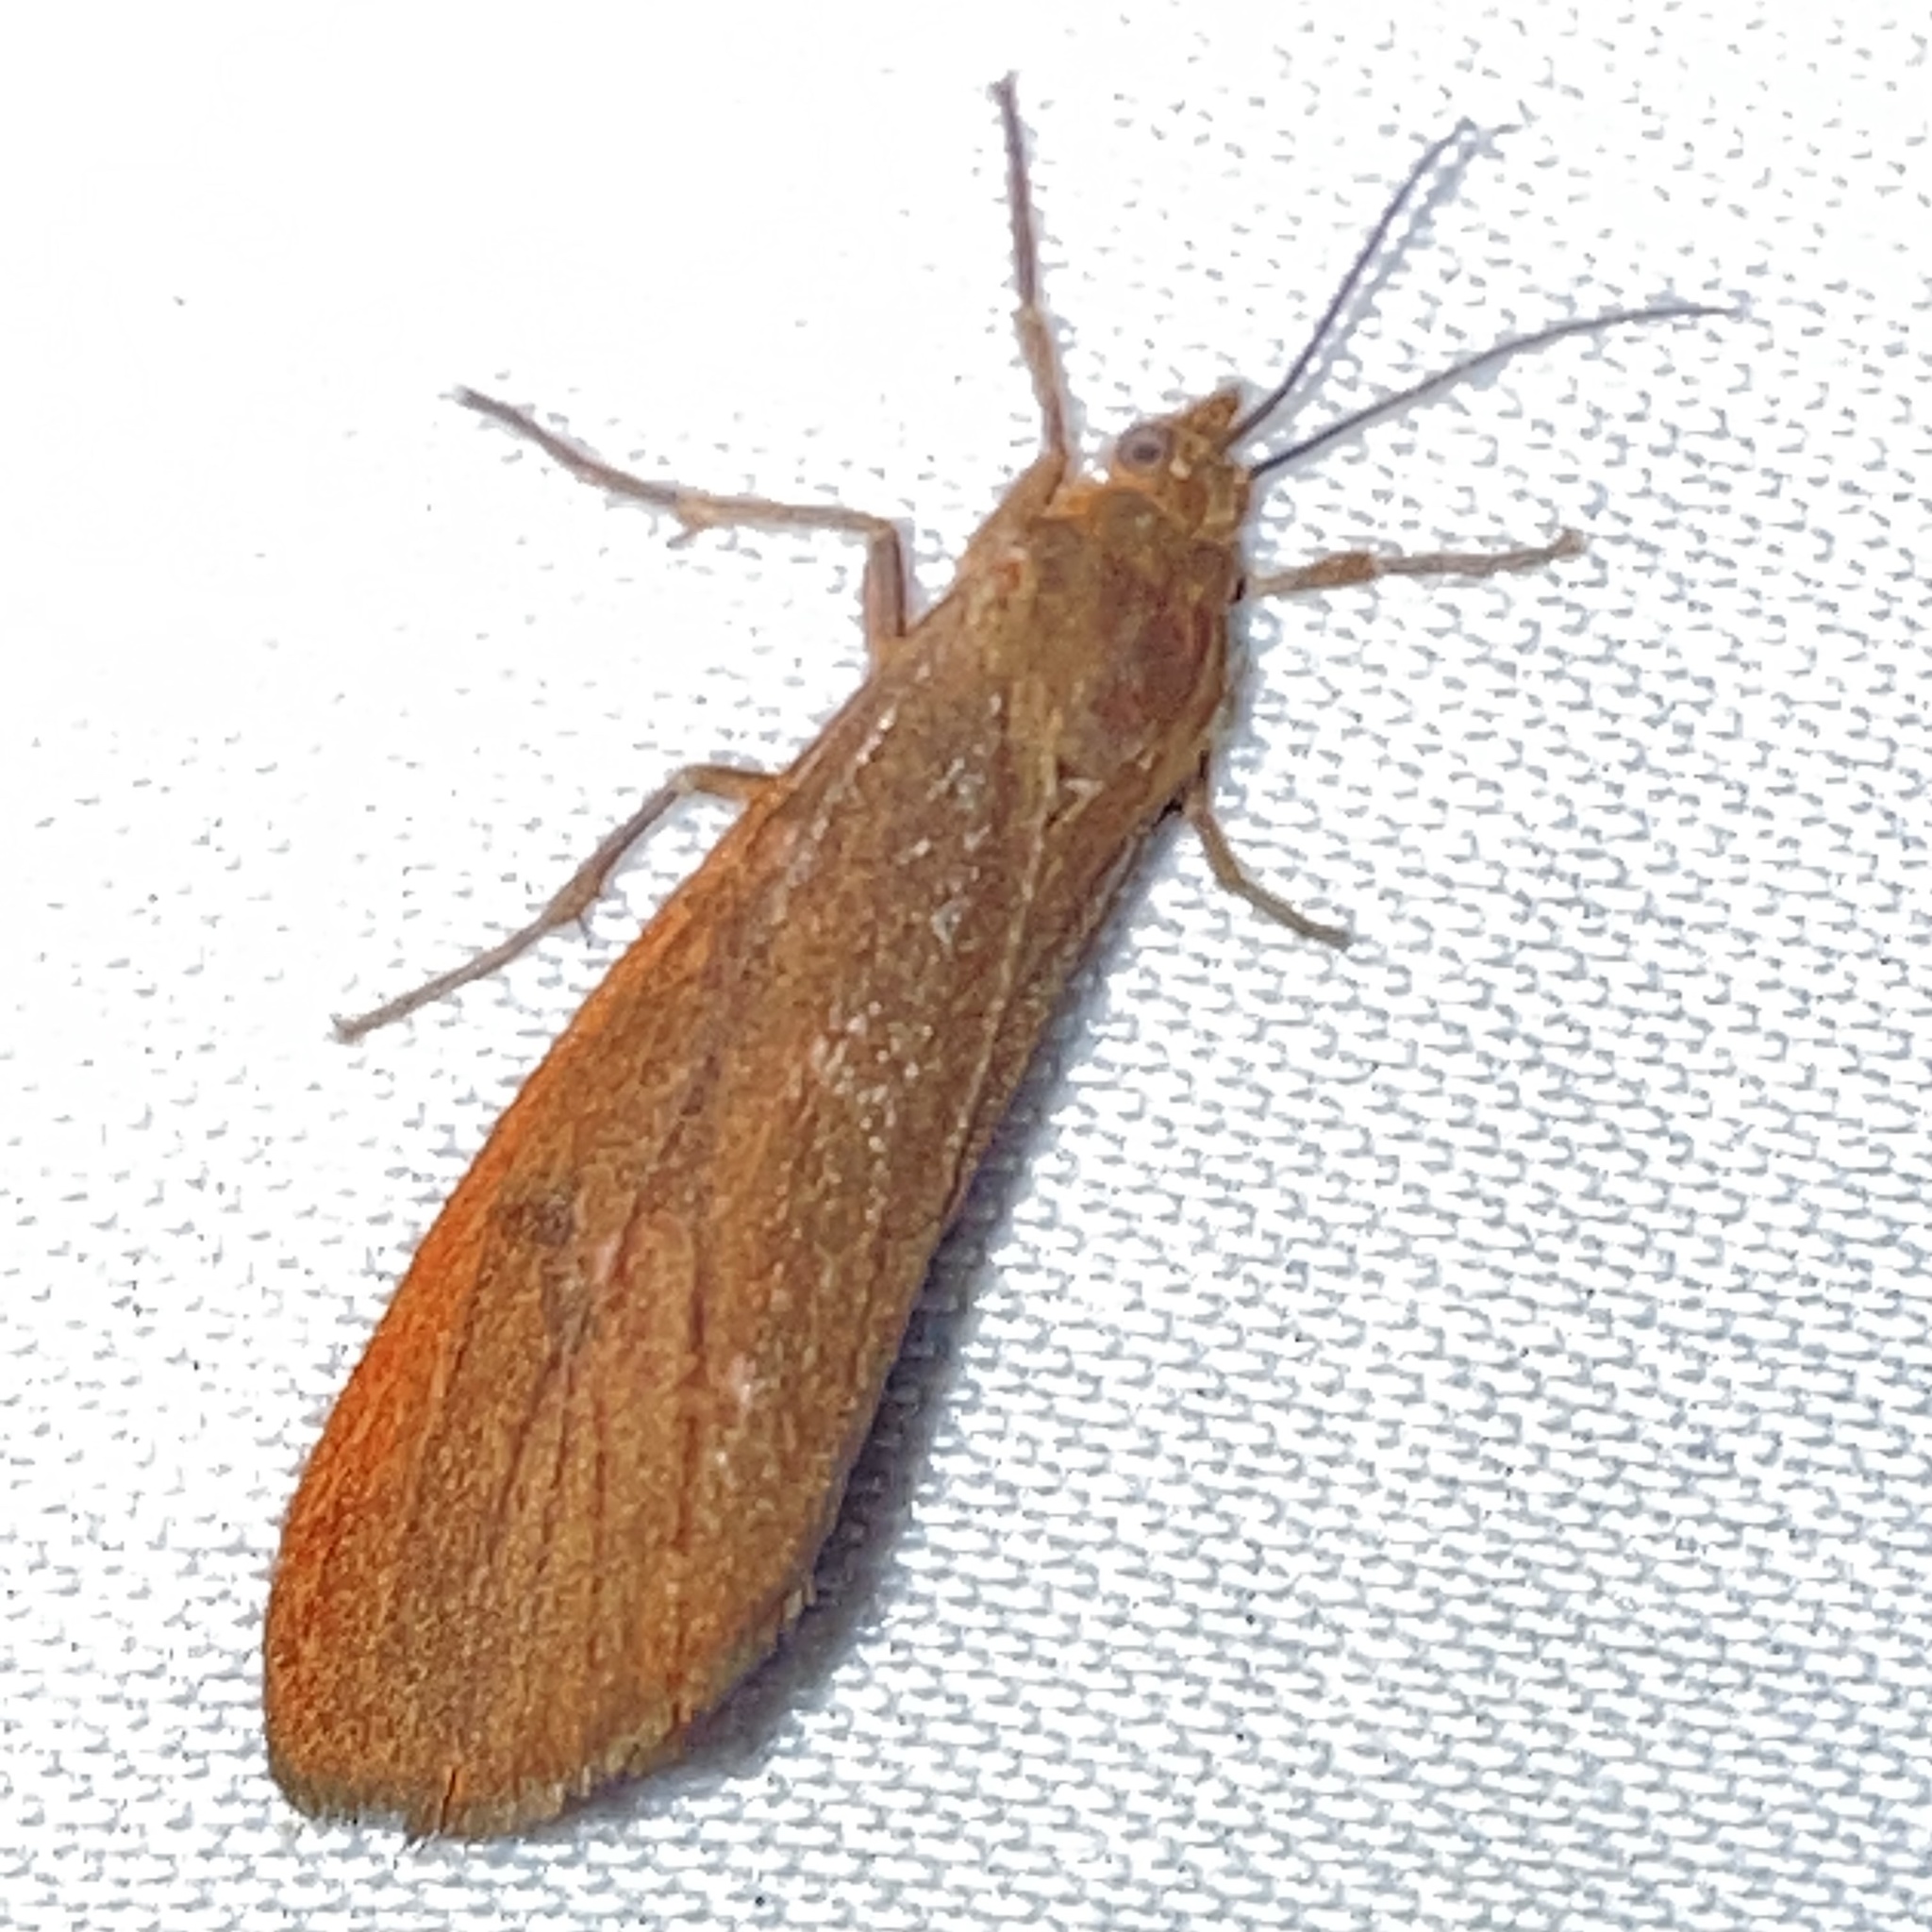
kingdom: Animalia
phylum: Arthropoda
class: Insecta
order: Lepidoptera
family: Erebidae
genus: Virbia
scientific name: Virbia opella
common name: Tawny virbia moth
